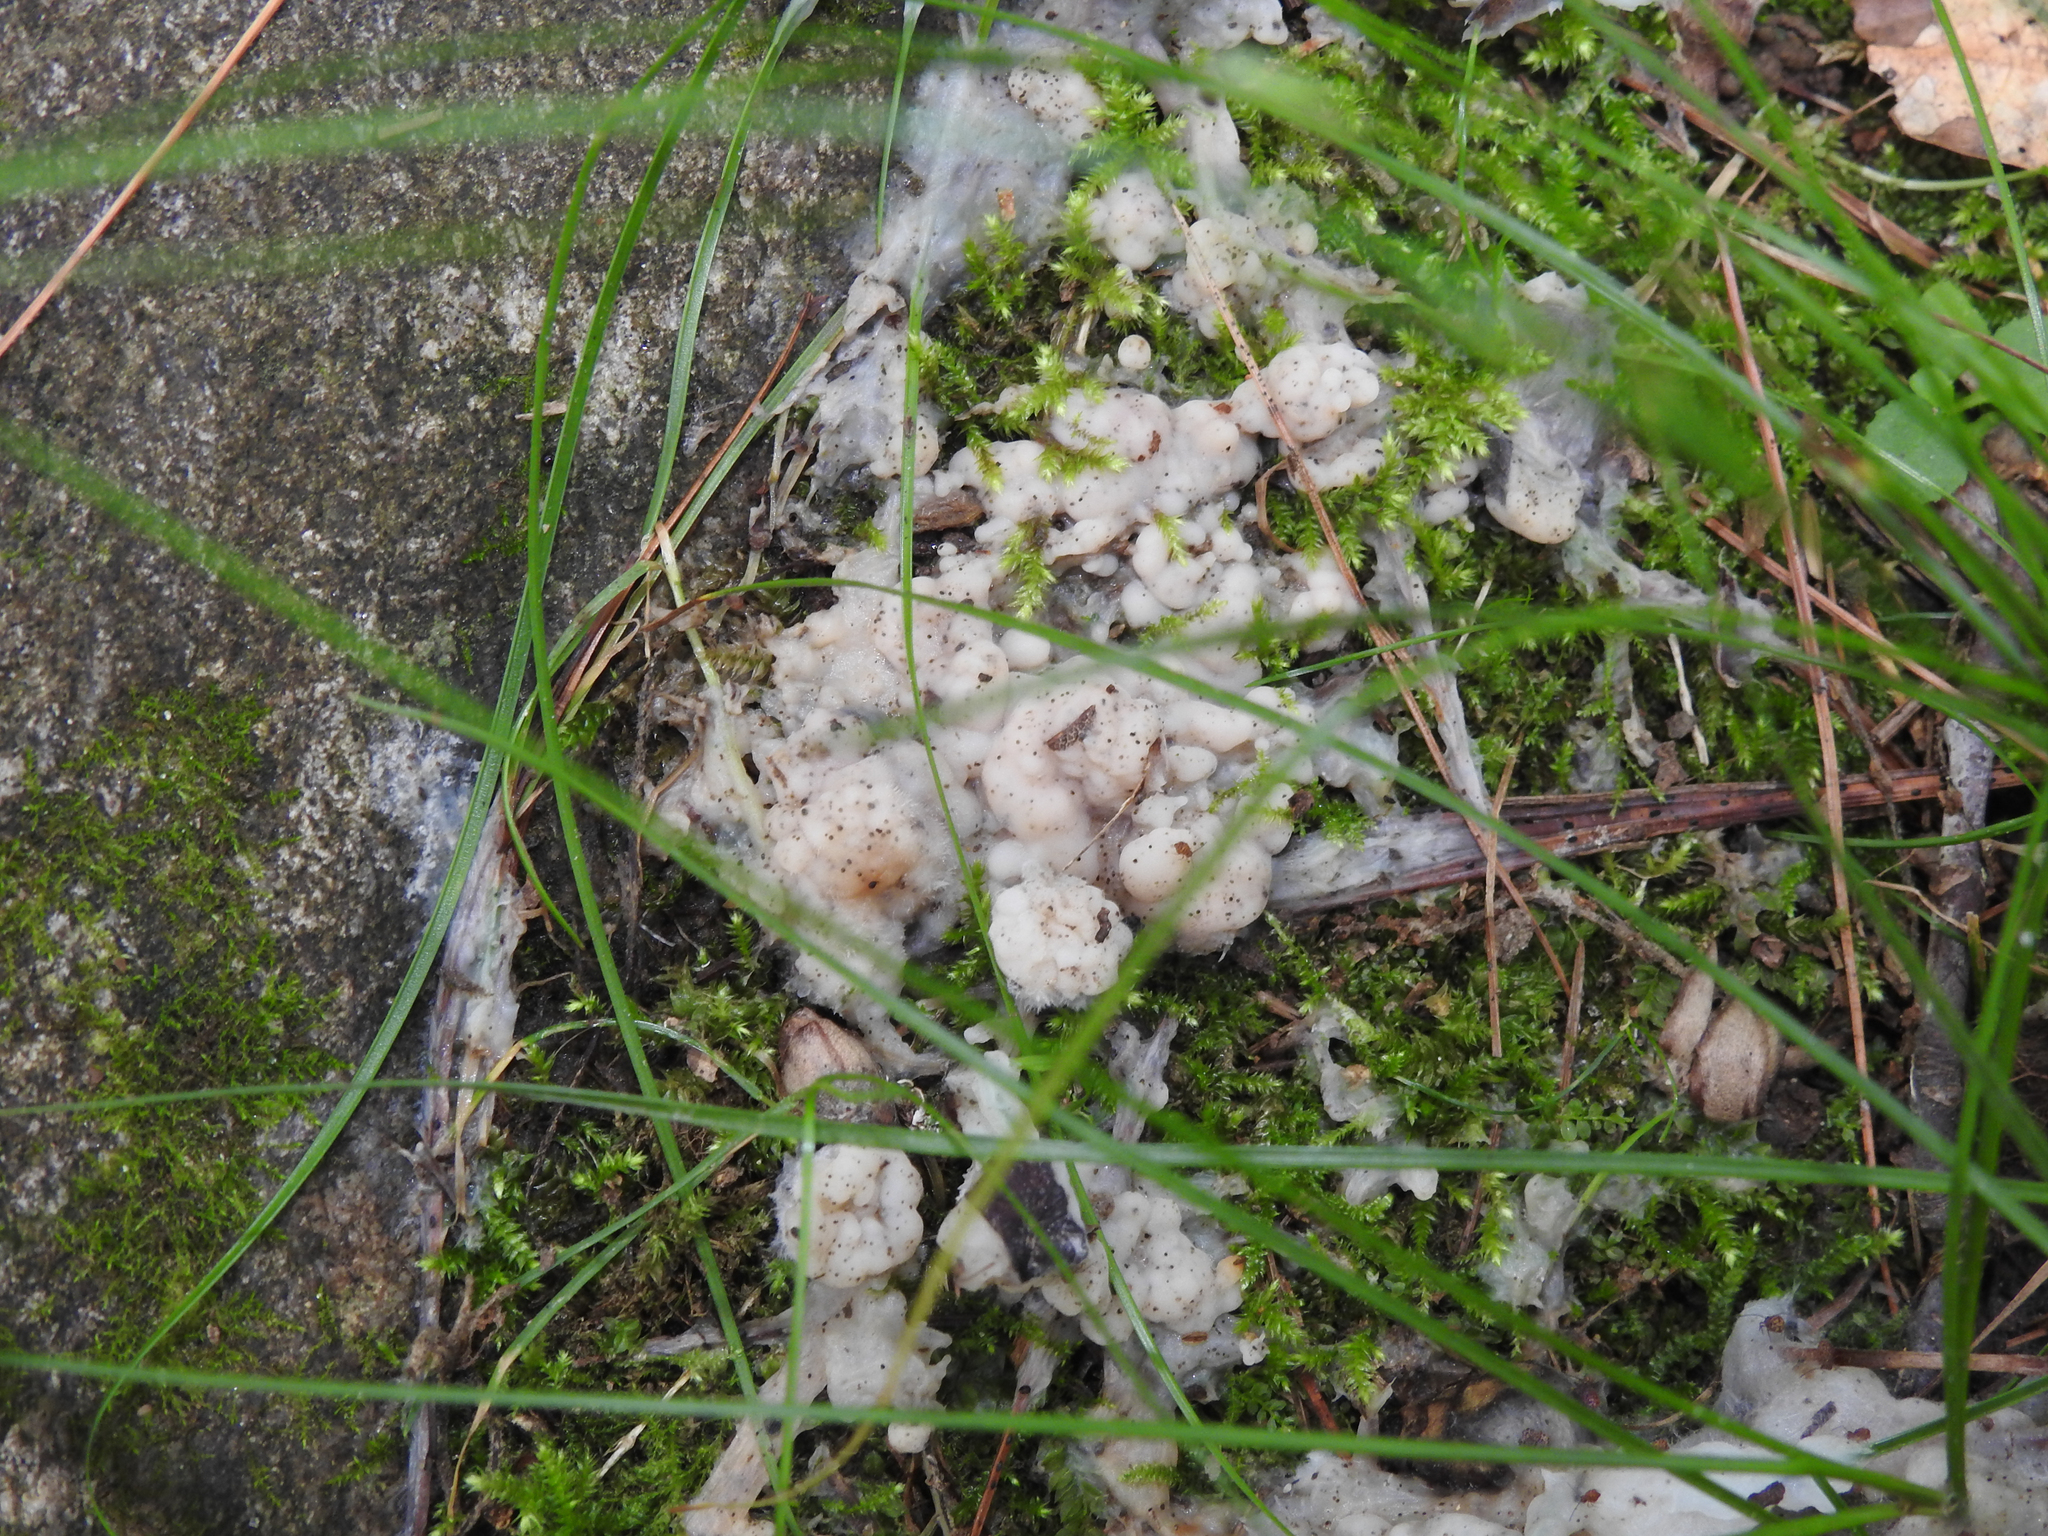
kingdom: Fungi
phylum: Basidiomycota
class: Agaricomycetes
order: Sebacinales
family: Sebacinaceae
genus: Sebacina
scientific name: Sebacina incrustans
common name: Enveloping crust
